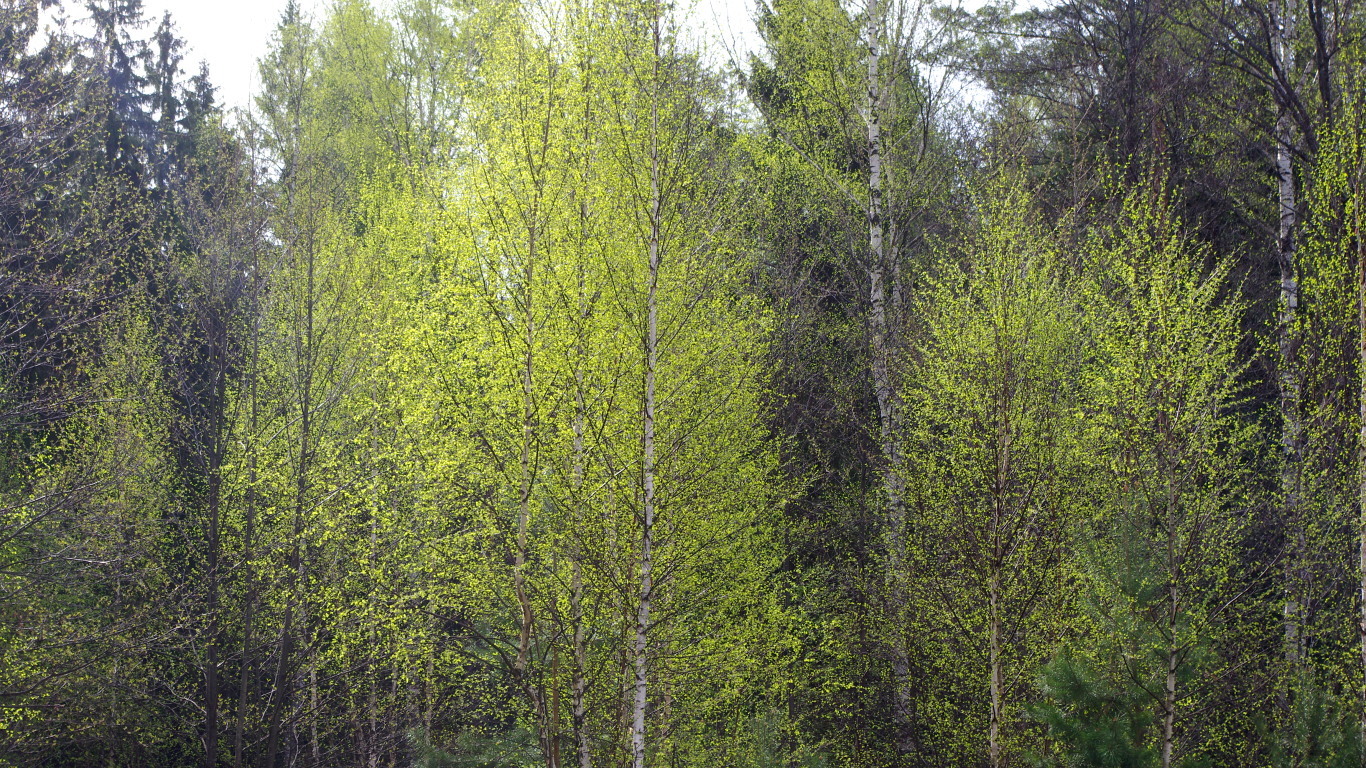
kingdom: Plantae
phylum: Tracheophyta
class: Magnoliopsida
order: Fagales
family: Betulaceae
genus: Betula
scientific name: Betula pubescens
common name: Downy birch
